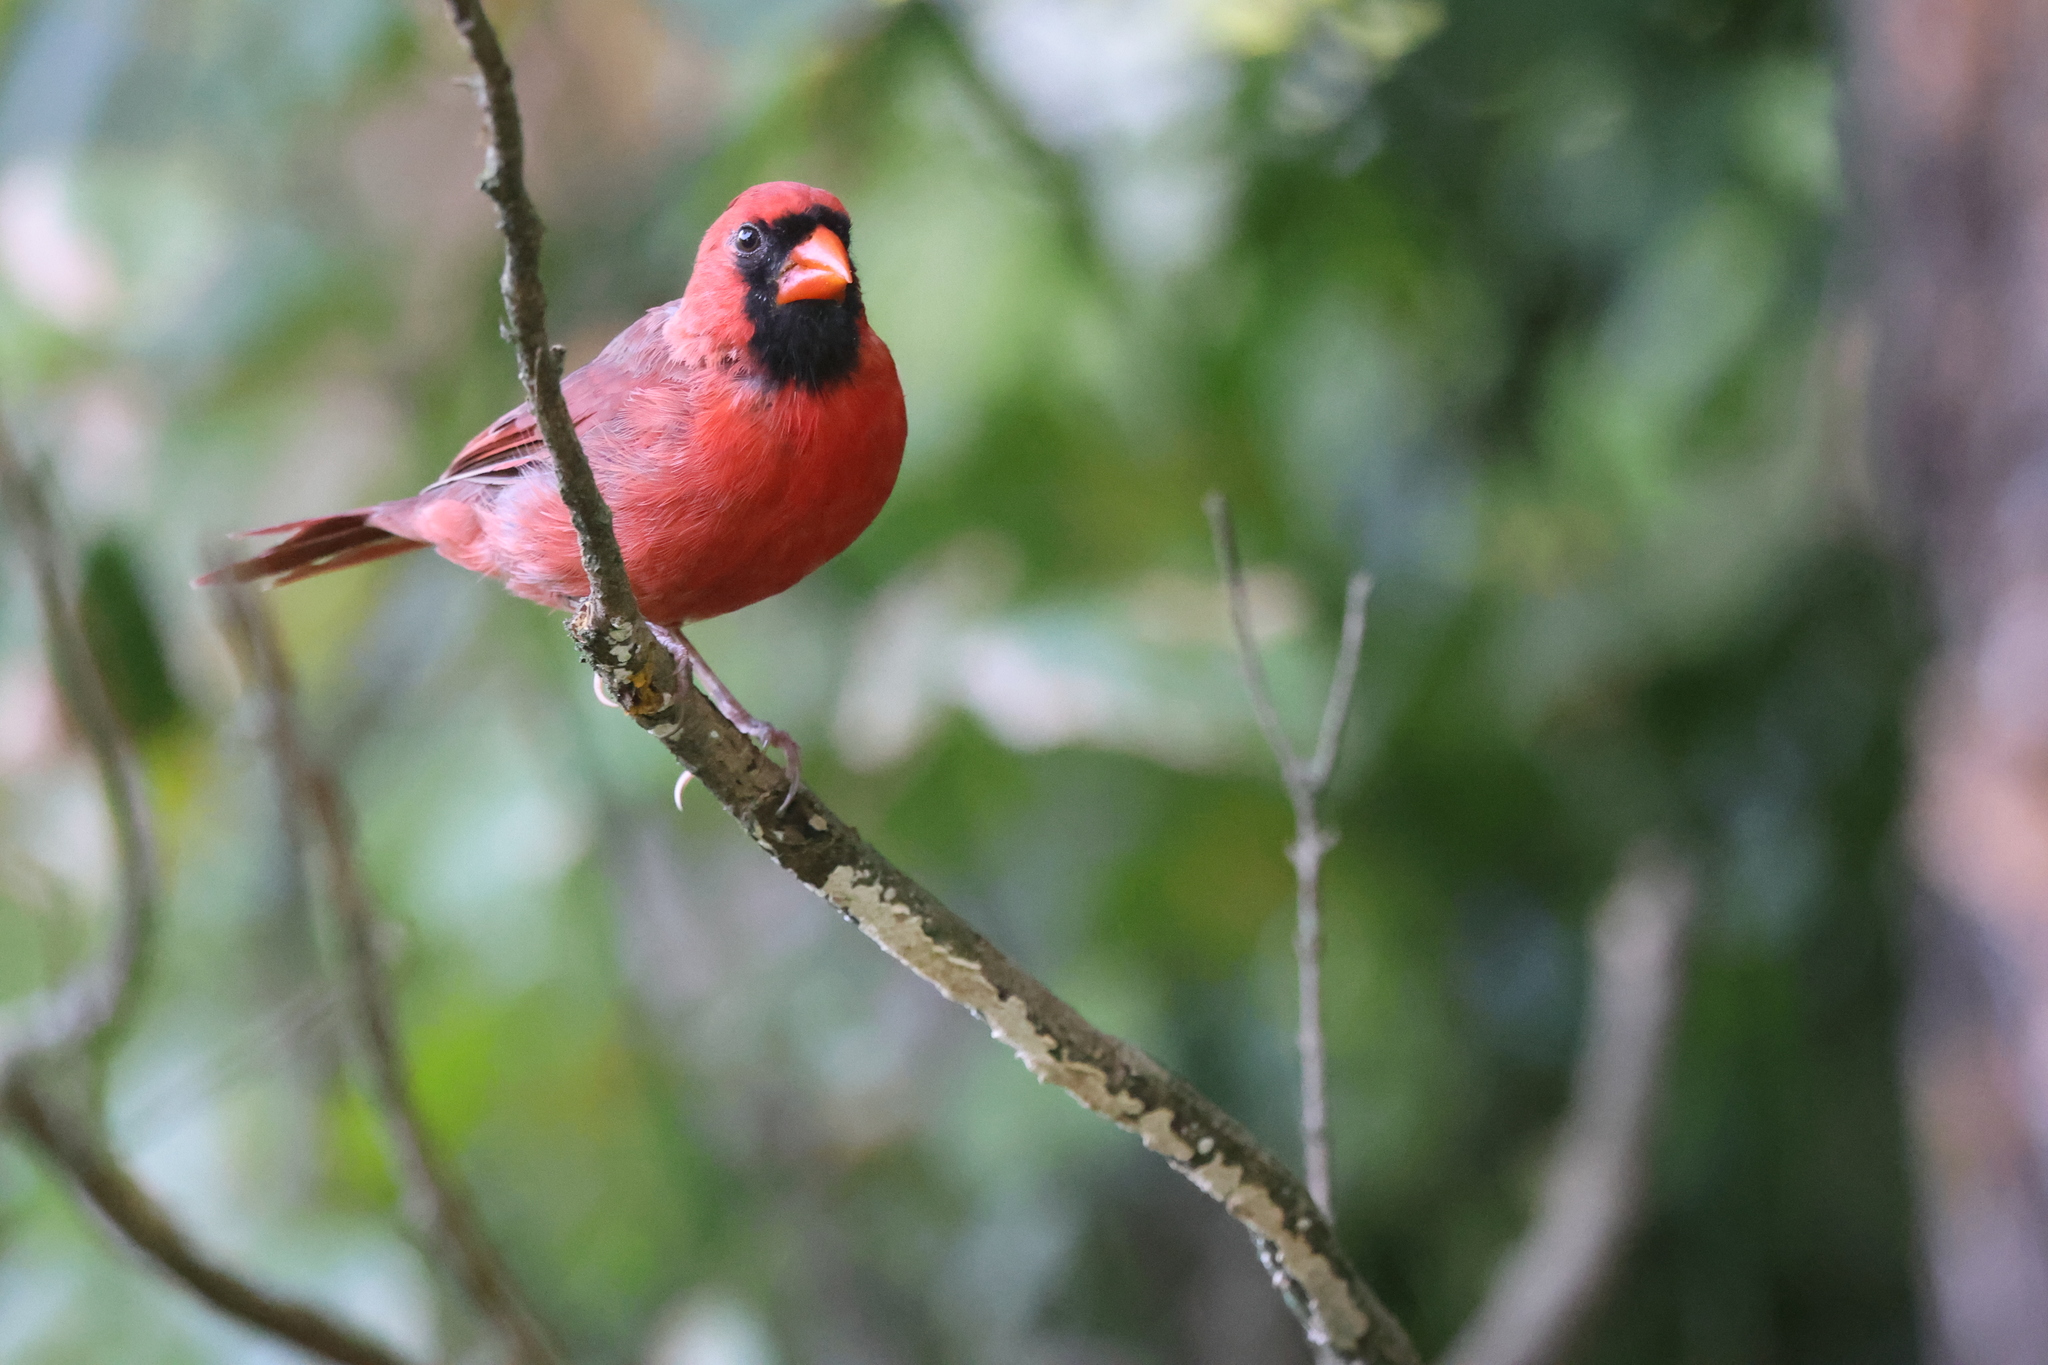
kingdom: Animalia
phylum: Chordata
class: Aves
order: Passeriformes
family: Cardinalidae
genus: Cardinalis
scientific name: Cardinalis cardinalis
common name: Northern cardinal
